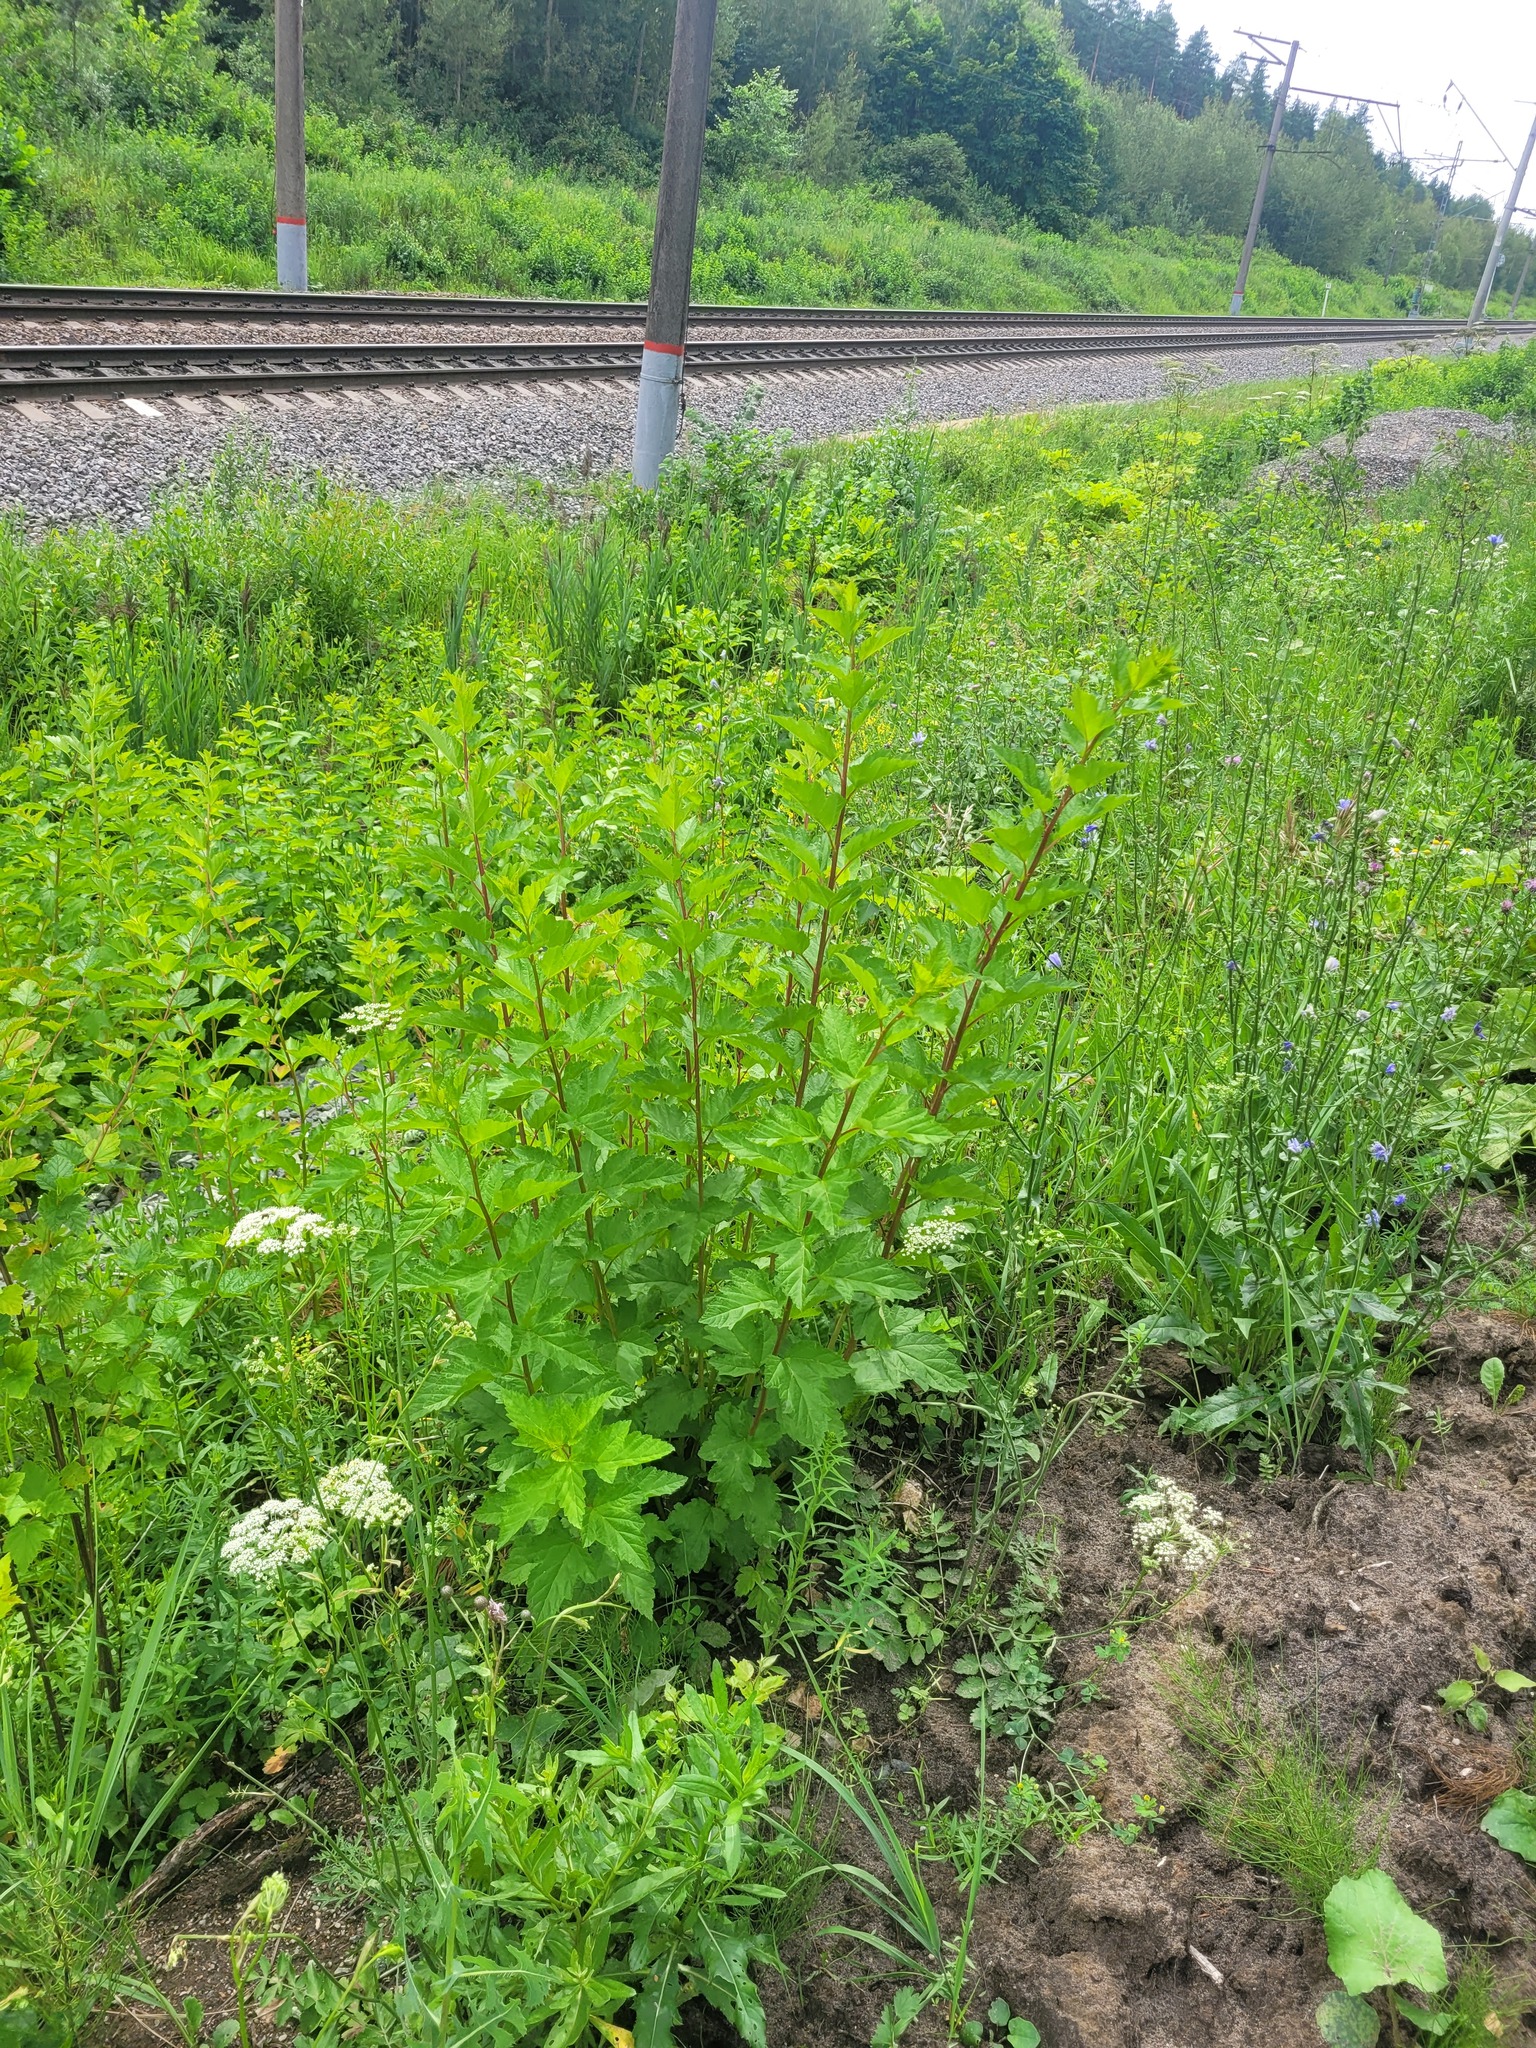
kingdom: Plantae
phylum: Tracheophyta
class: Magnoliopsida
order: Rosales
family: Rosaceae
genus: Physocarpus
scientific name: Physocarpus opulifolius
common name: Ninebark
